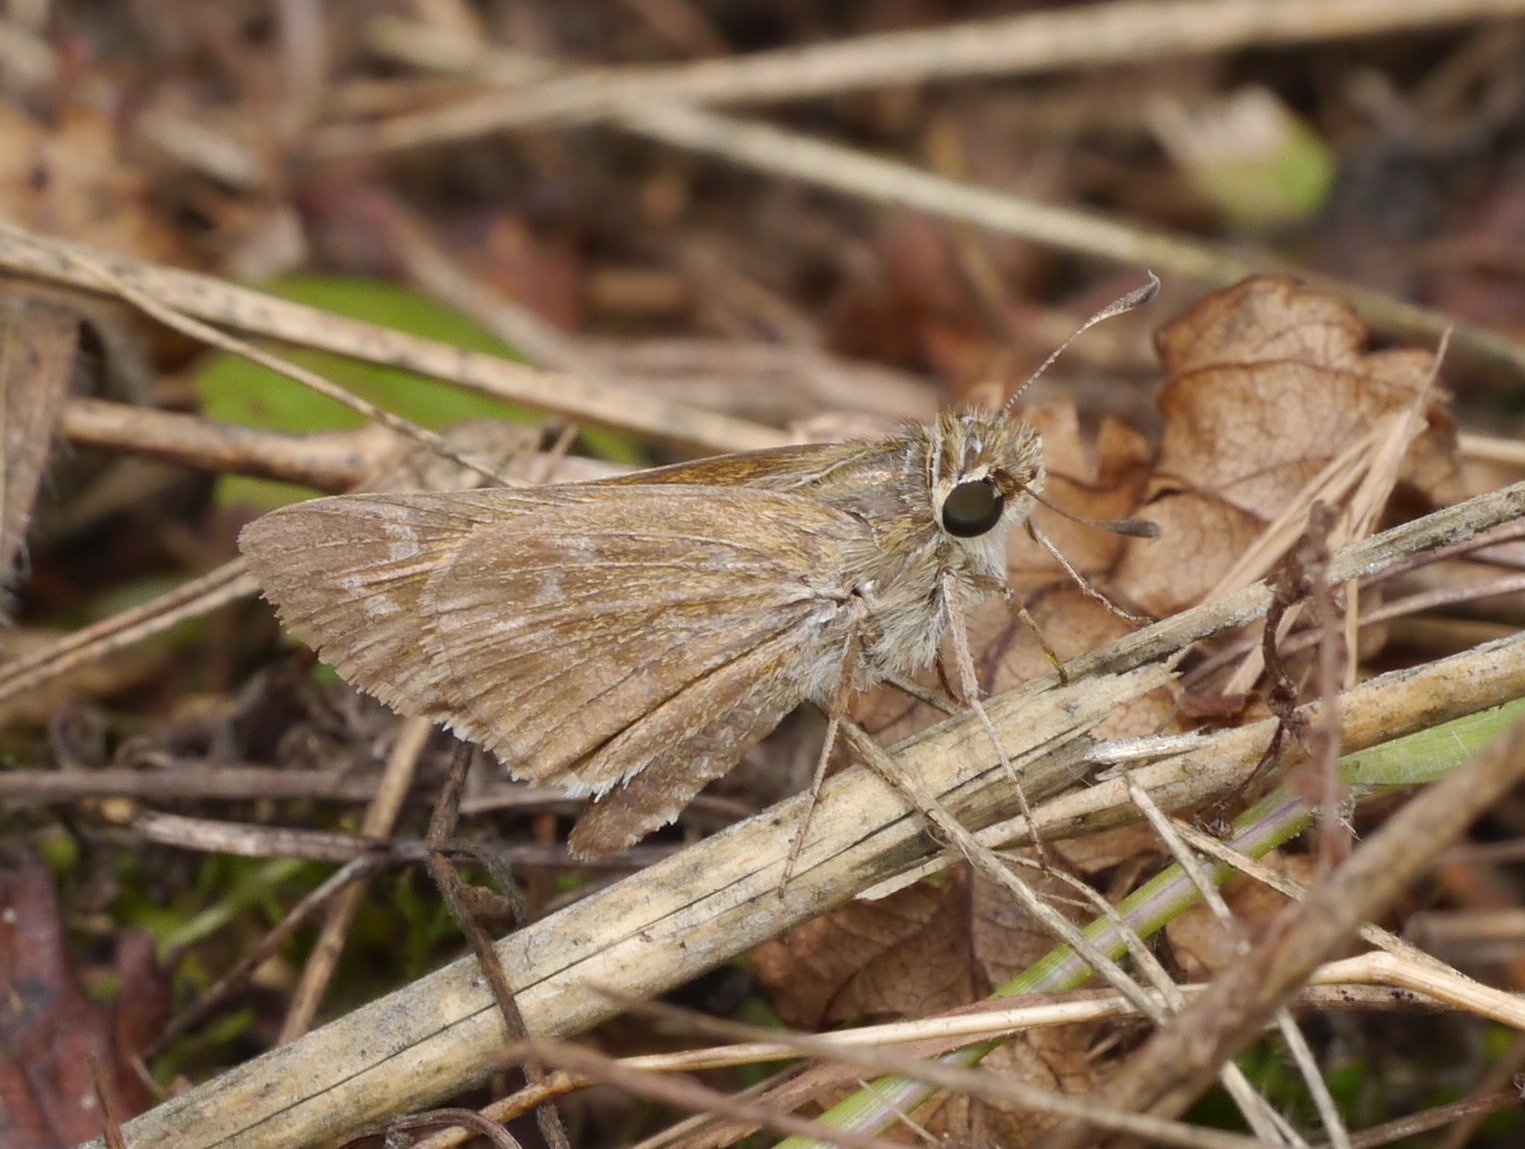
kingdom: Animalia
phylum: Arthropoda
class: Insecta
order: Lepidoptera
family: Hesperiidae
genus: Atalopedes
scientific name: Atalopedes
